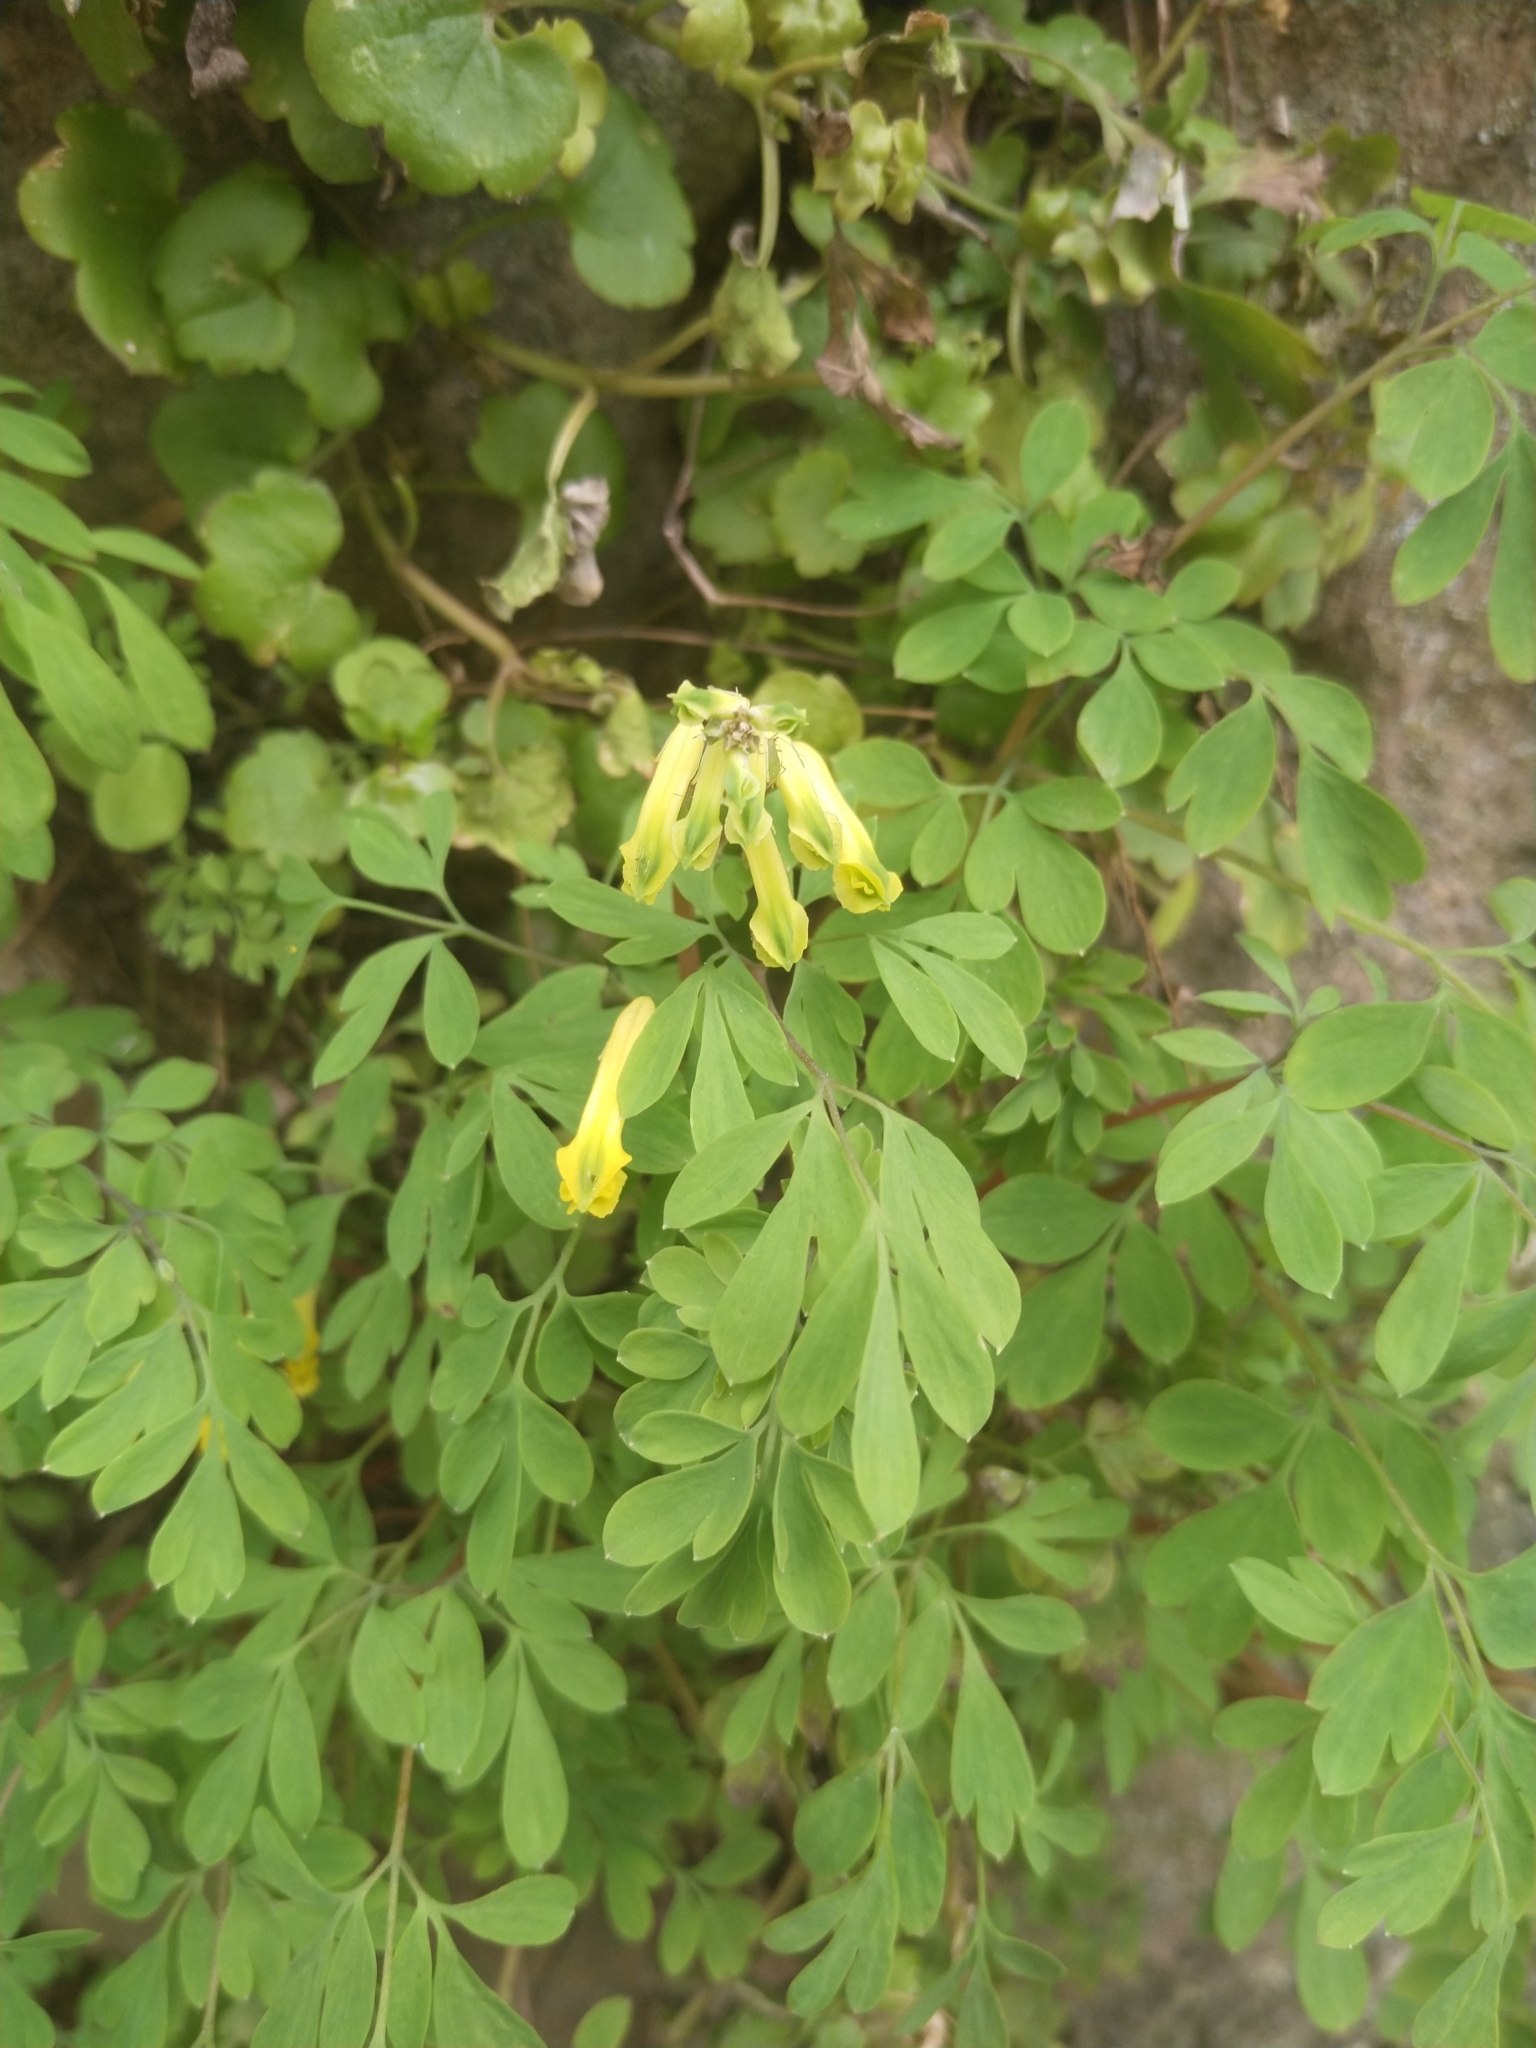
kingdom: Plantae
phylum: Tracheophyta
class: Magnoliopsida
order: Ranunculales
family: Papaveraceae
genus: Pseudofumaria
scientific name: Pseudofumaria lutea
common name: Yellow corydalis
